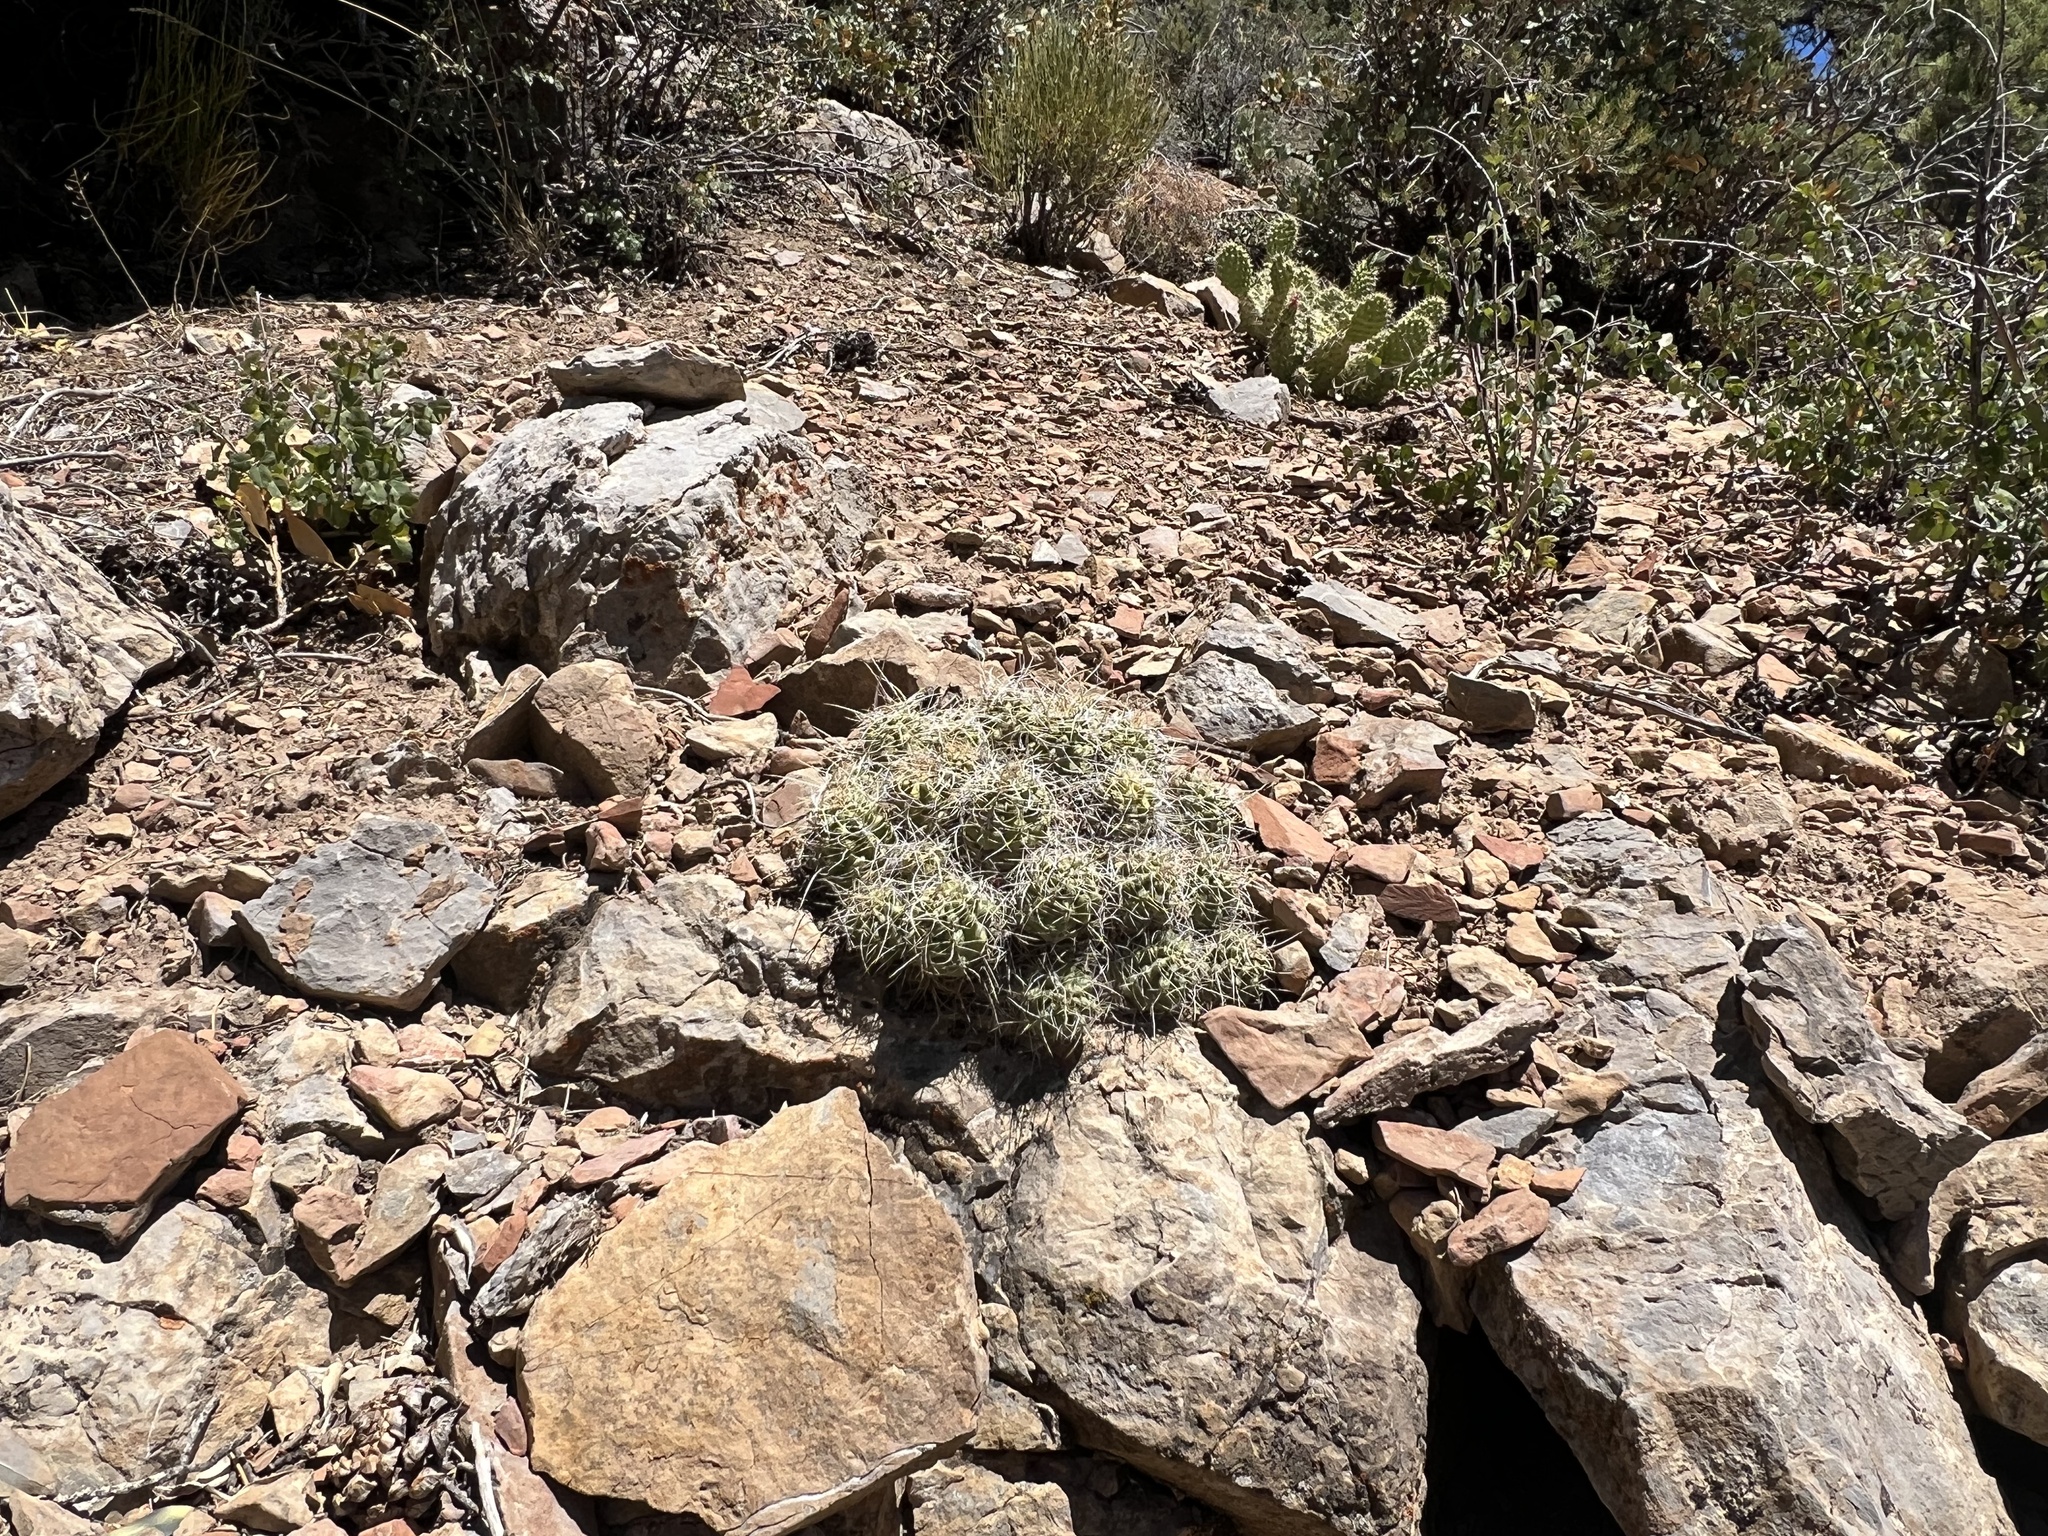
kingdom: Plantae
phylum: Tracheophyta
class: Magnoliopsida
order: Caryophyllales
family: Cactaceae
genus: Echinocereus
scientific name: Echinocereus triglochidiatus
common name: Claretcup hedgehog
